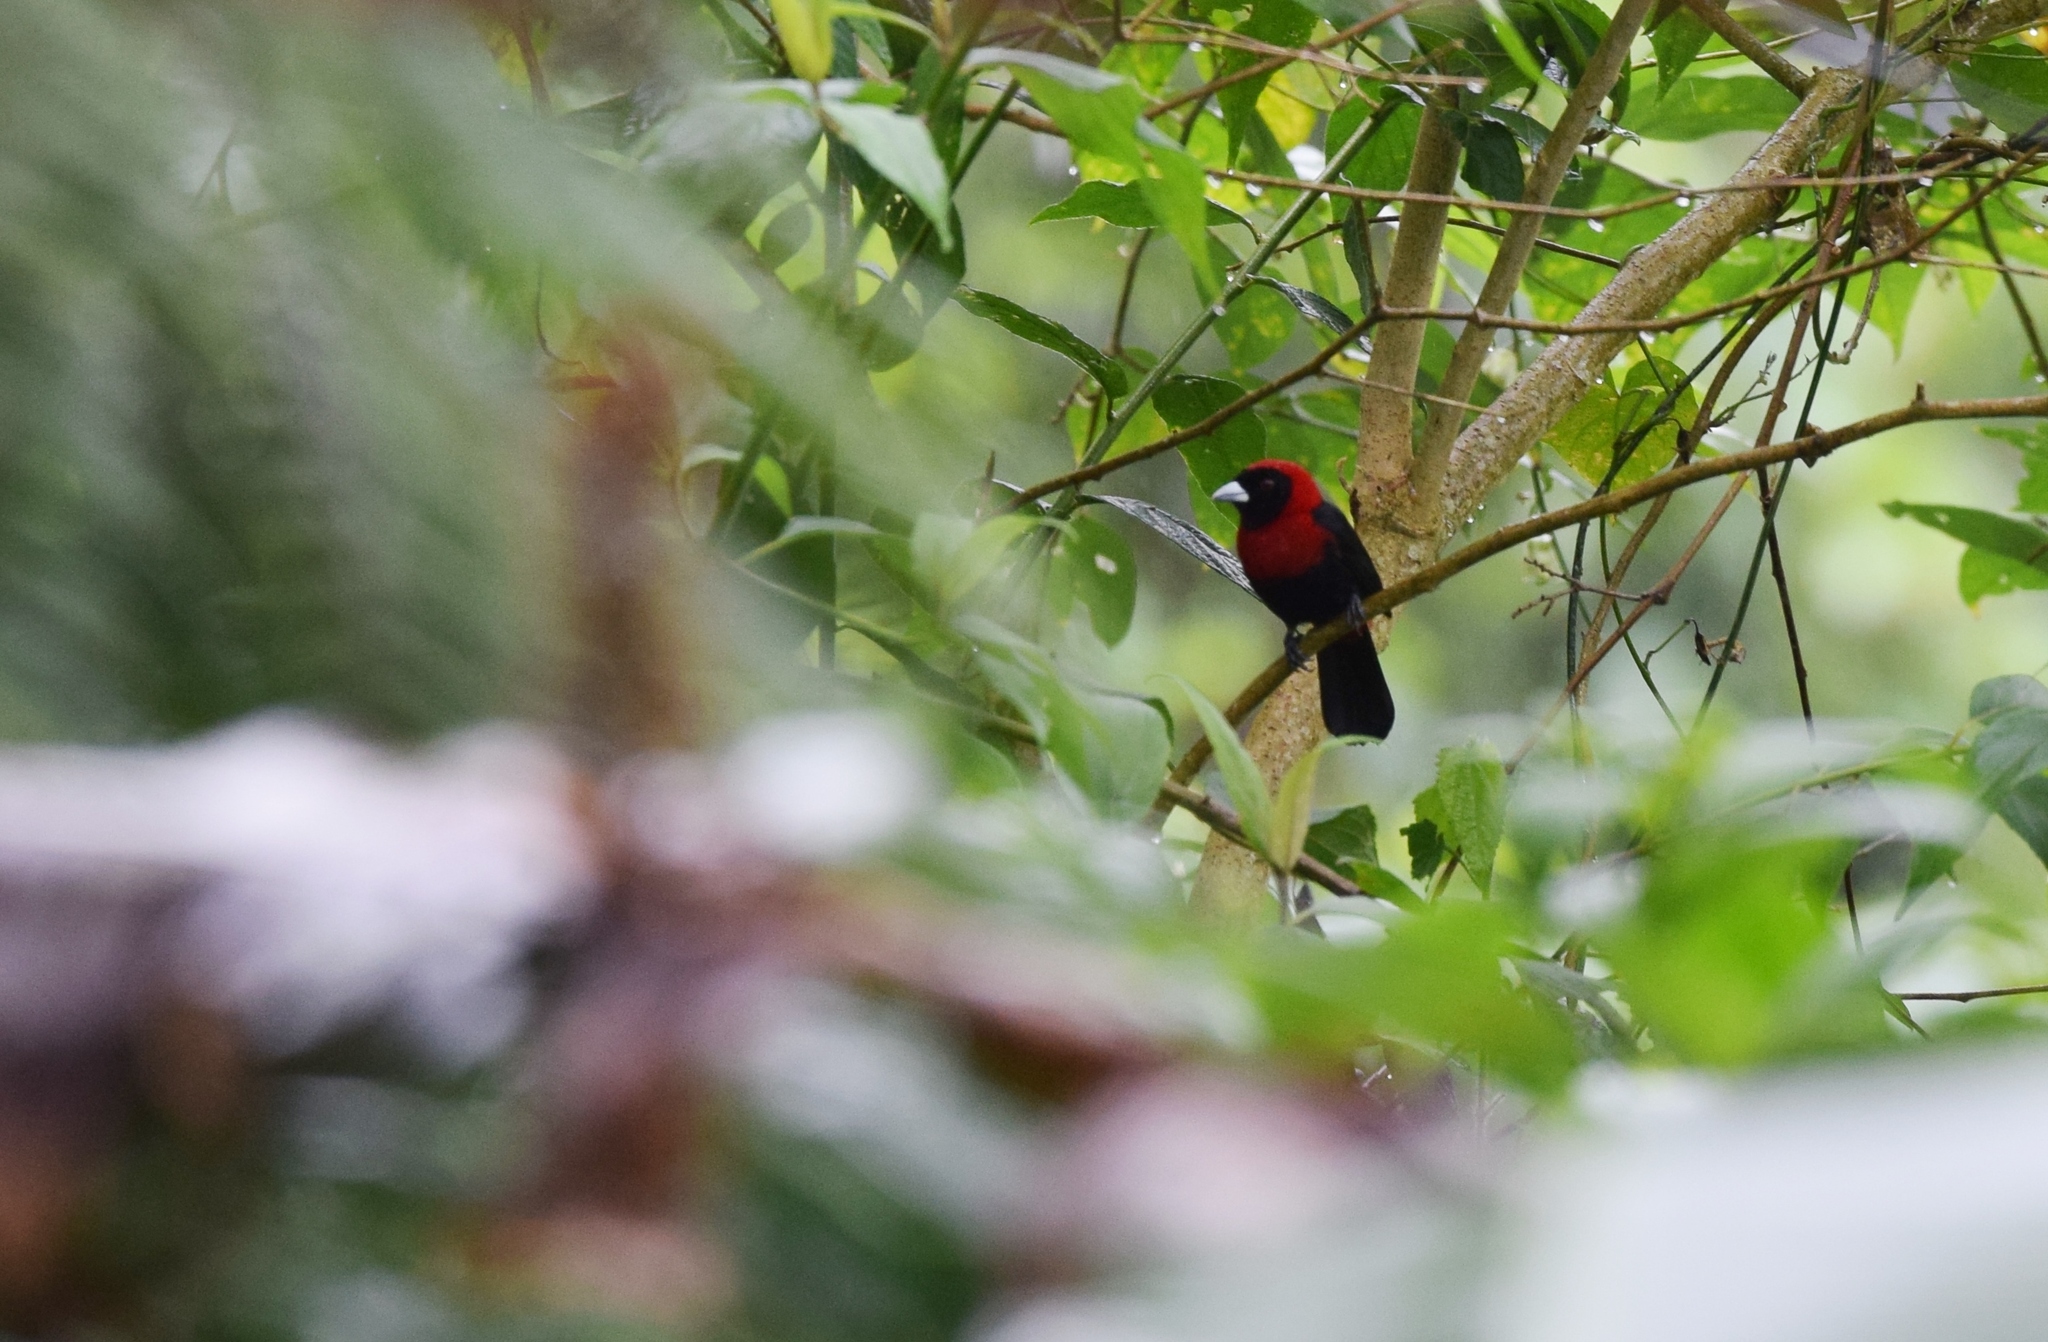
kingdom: Animalia
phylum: Chordata
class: Aves
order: Passeriformes
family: Thraupidae
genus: Ramphocelus
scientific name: Ramphocelus sanguinolentus
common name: Crimson-collared tanager
